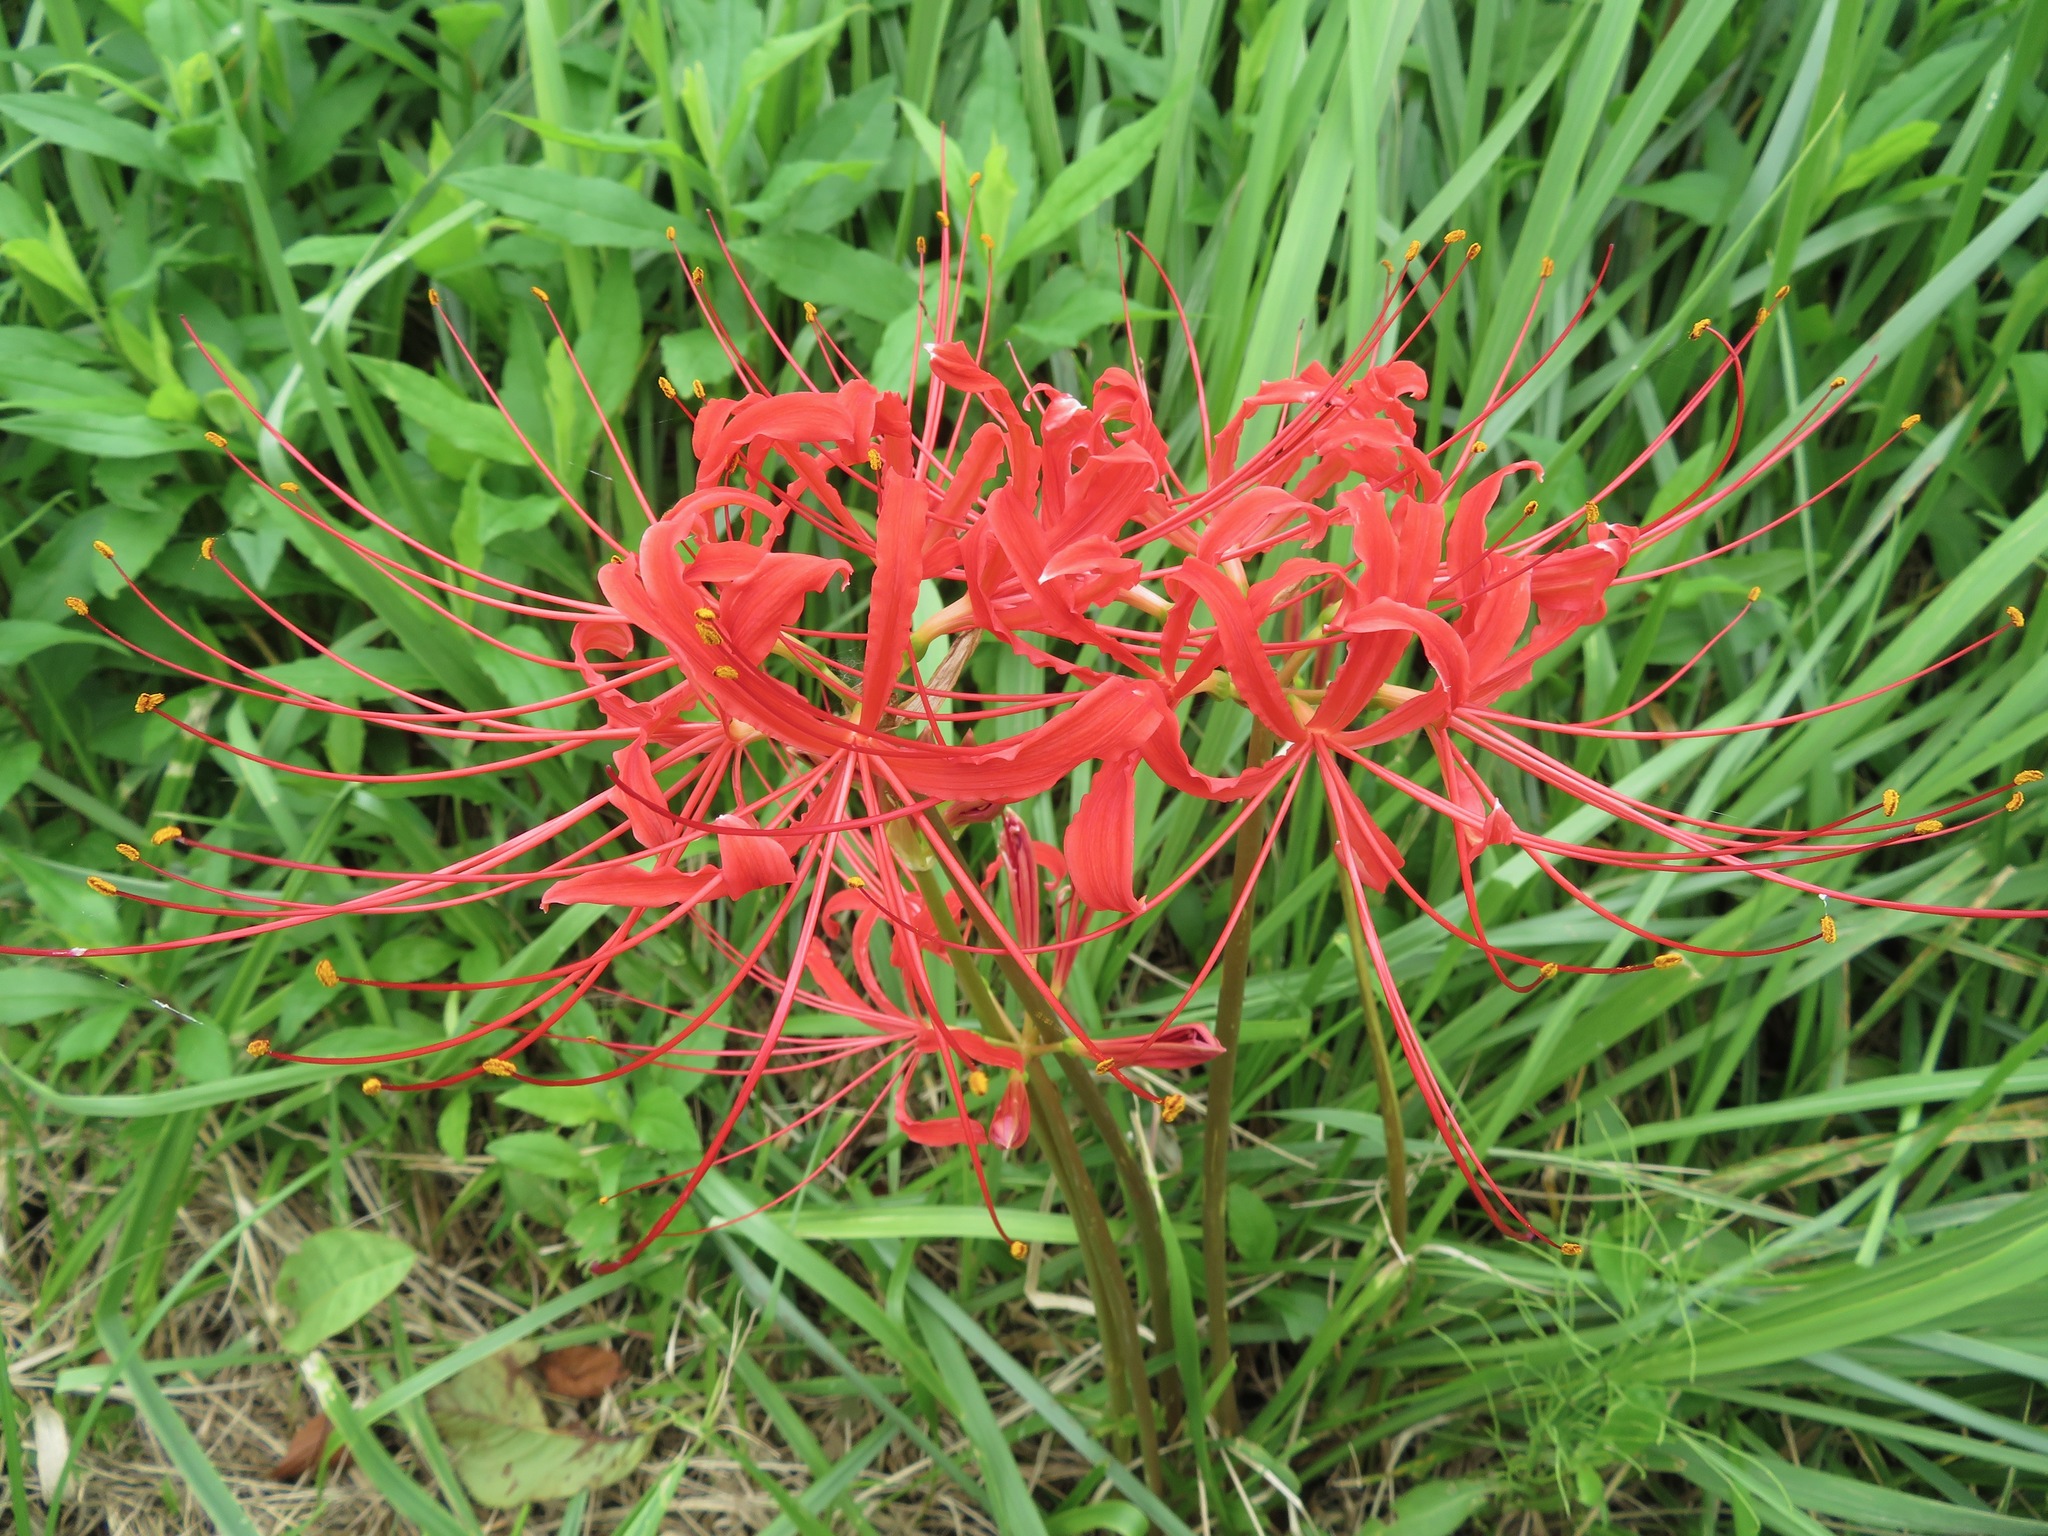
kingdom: Plantae
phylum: Tracheophyta
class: Liliopsida
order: Asparagales
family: Amaryllidaceae
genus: Lycoris
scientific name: Lycoris radiata
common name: Red spider lily
